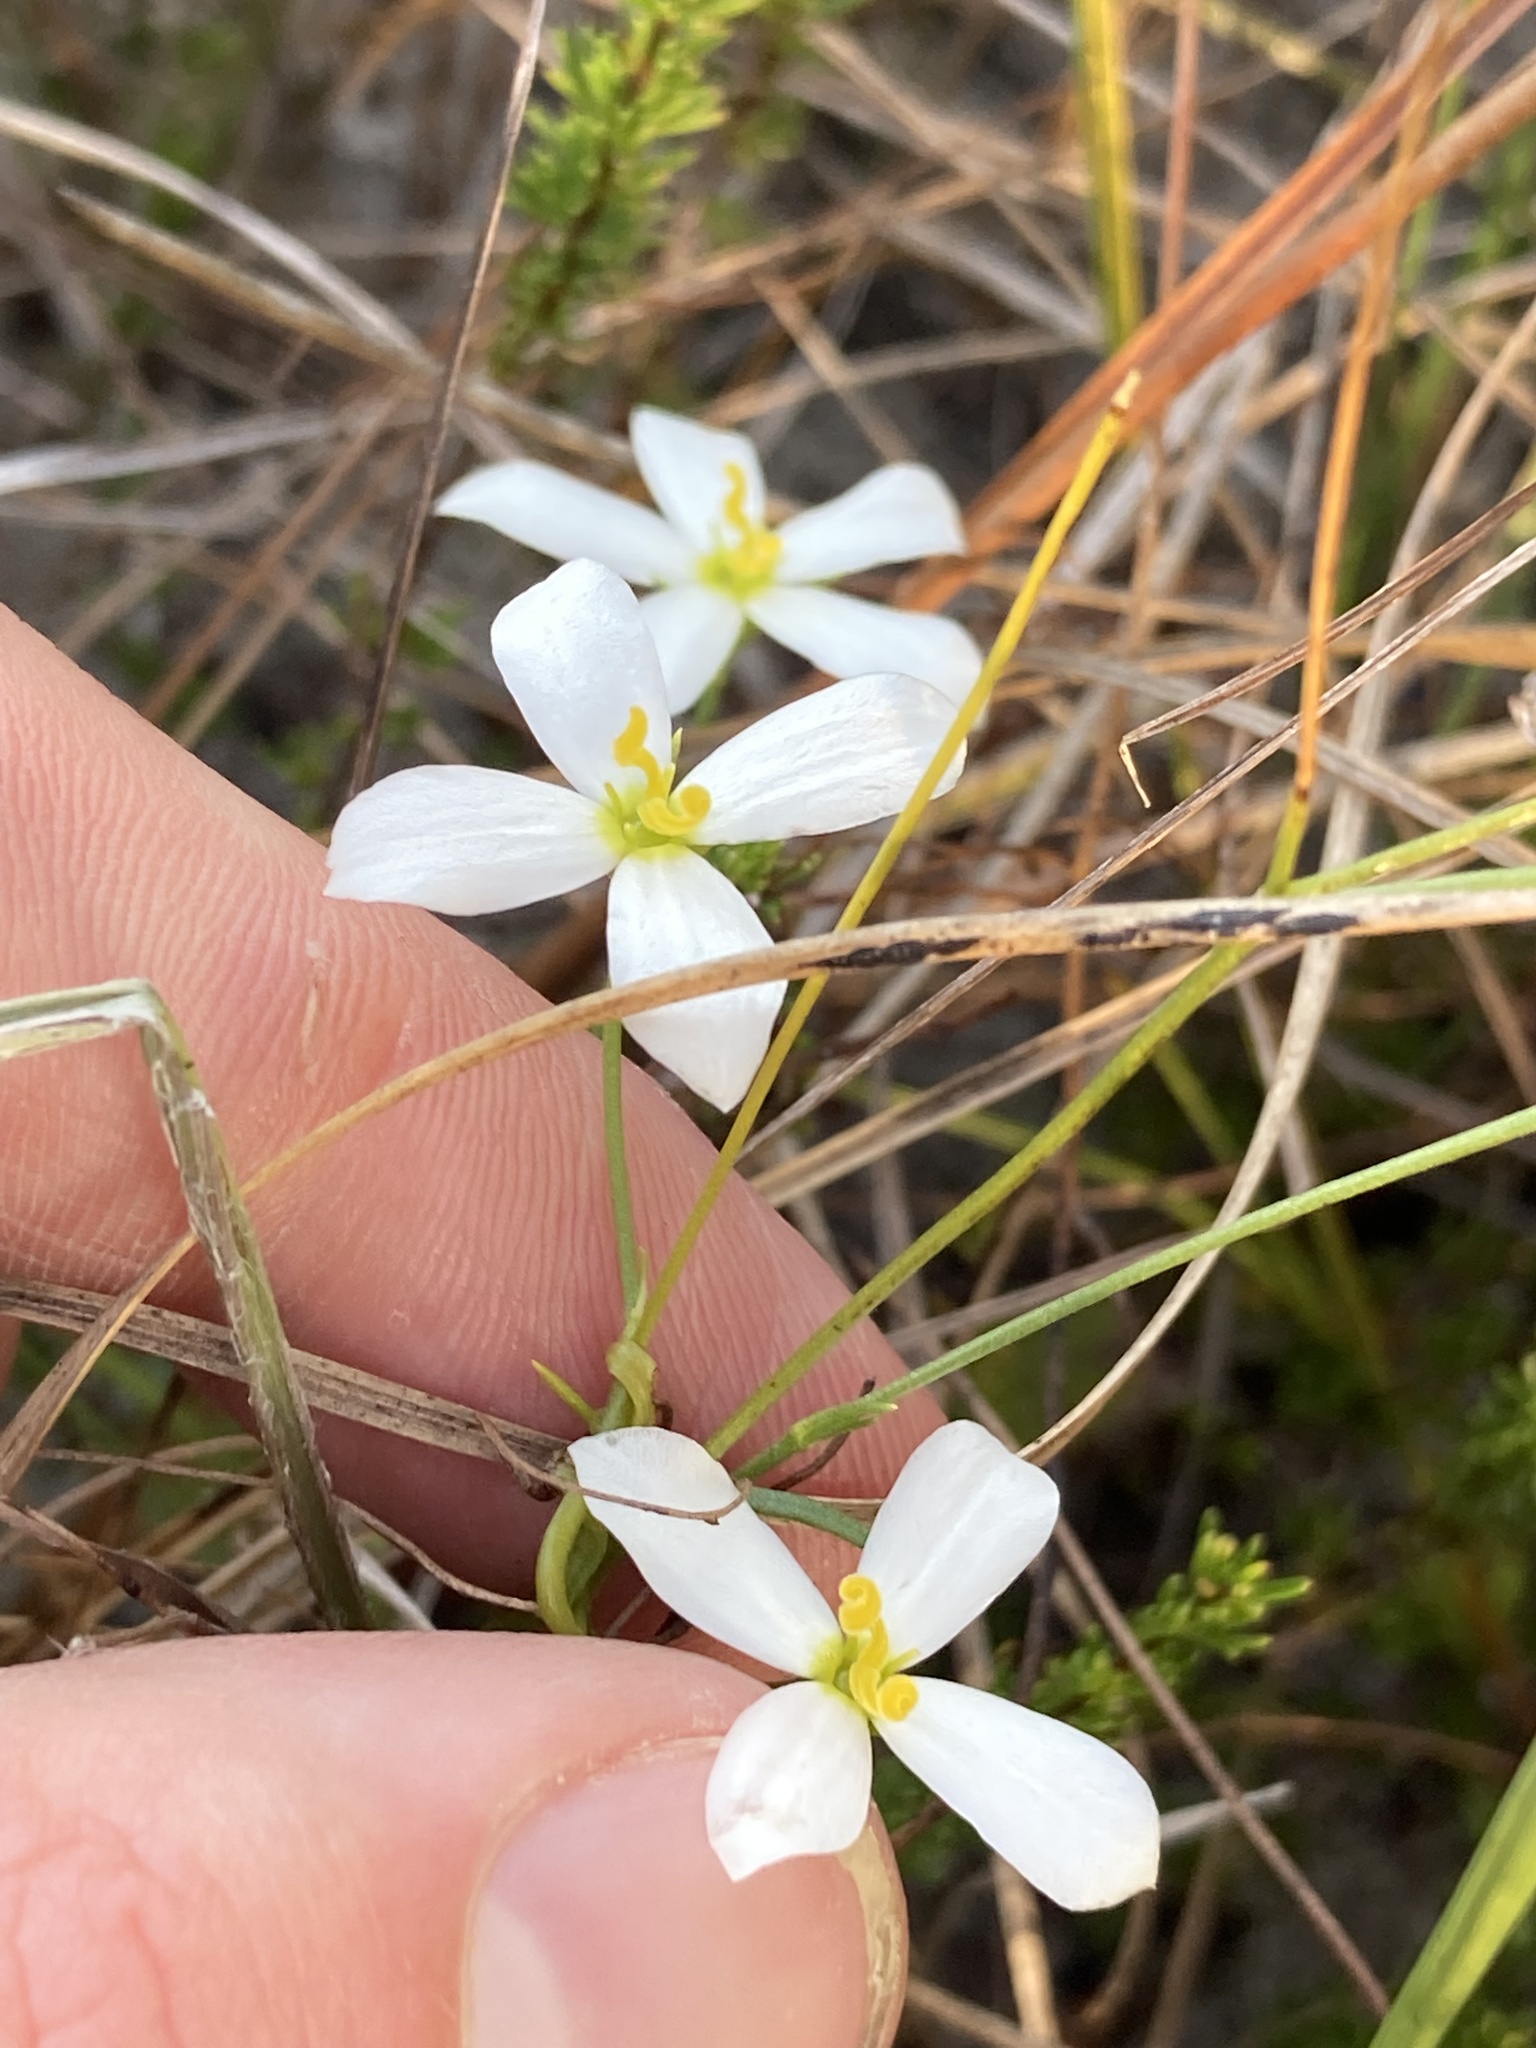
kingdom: Plantae
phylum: Tracheophyta
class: Magnoliopsida
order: Gentianales
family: Gentianaceae
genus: Sabatia
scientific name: Sabatia brevifolia
